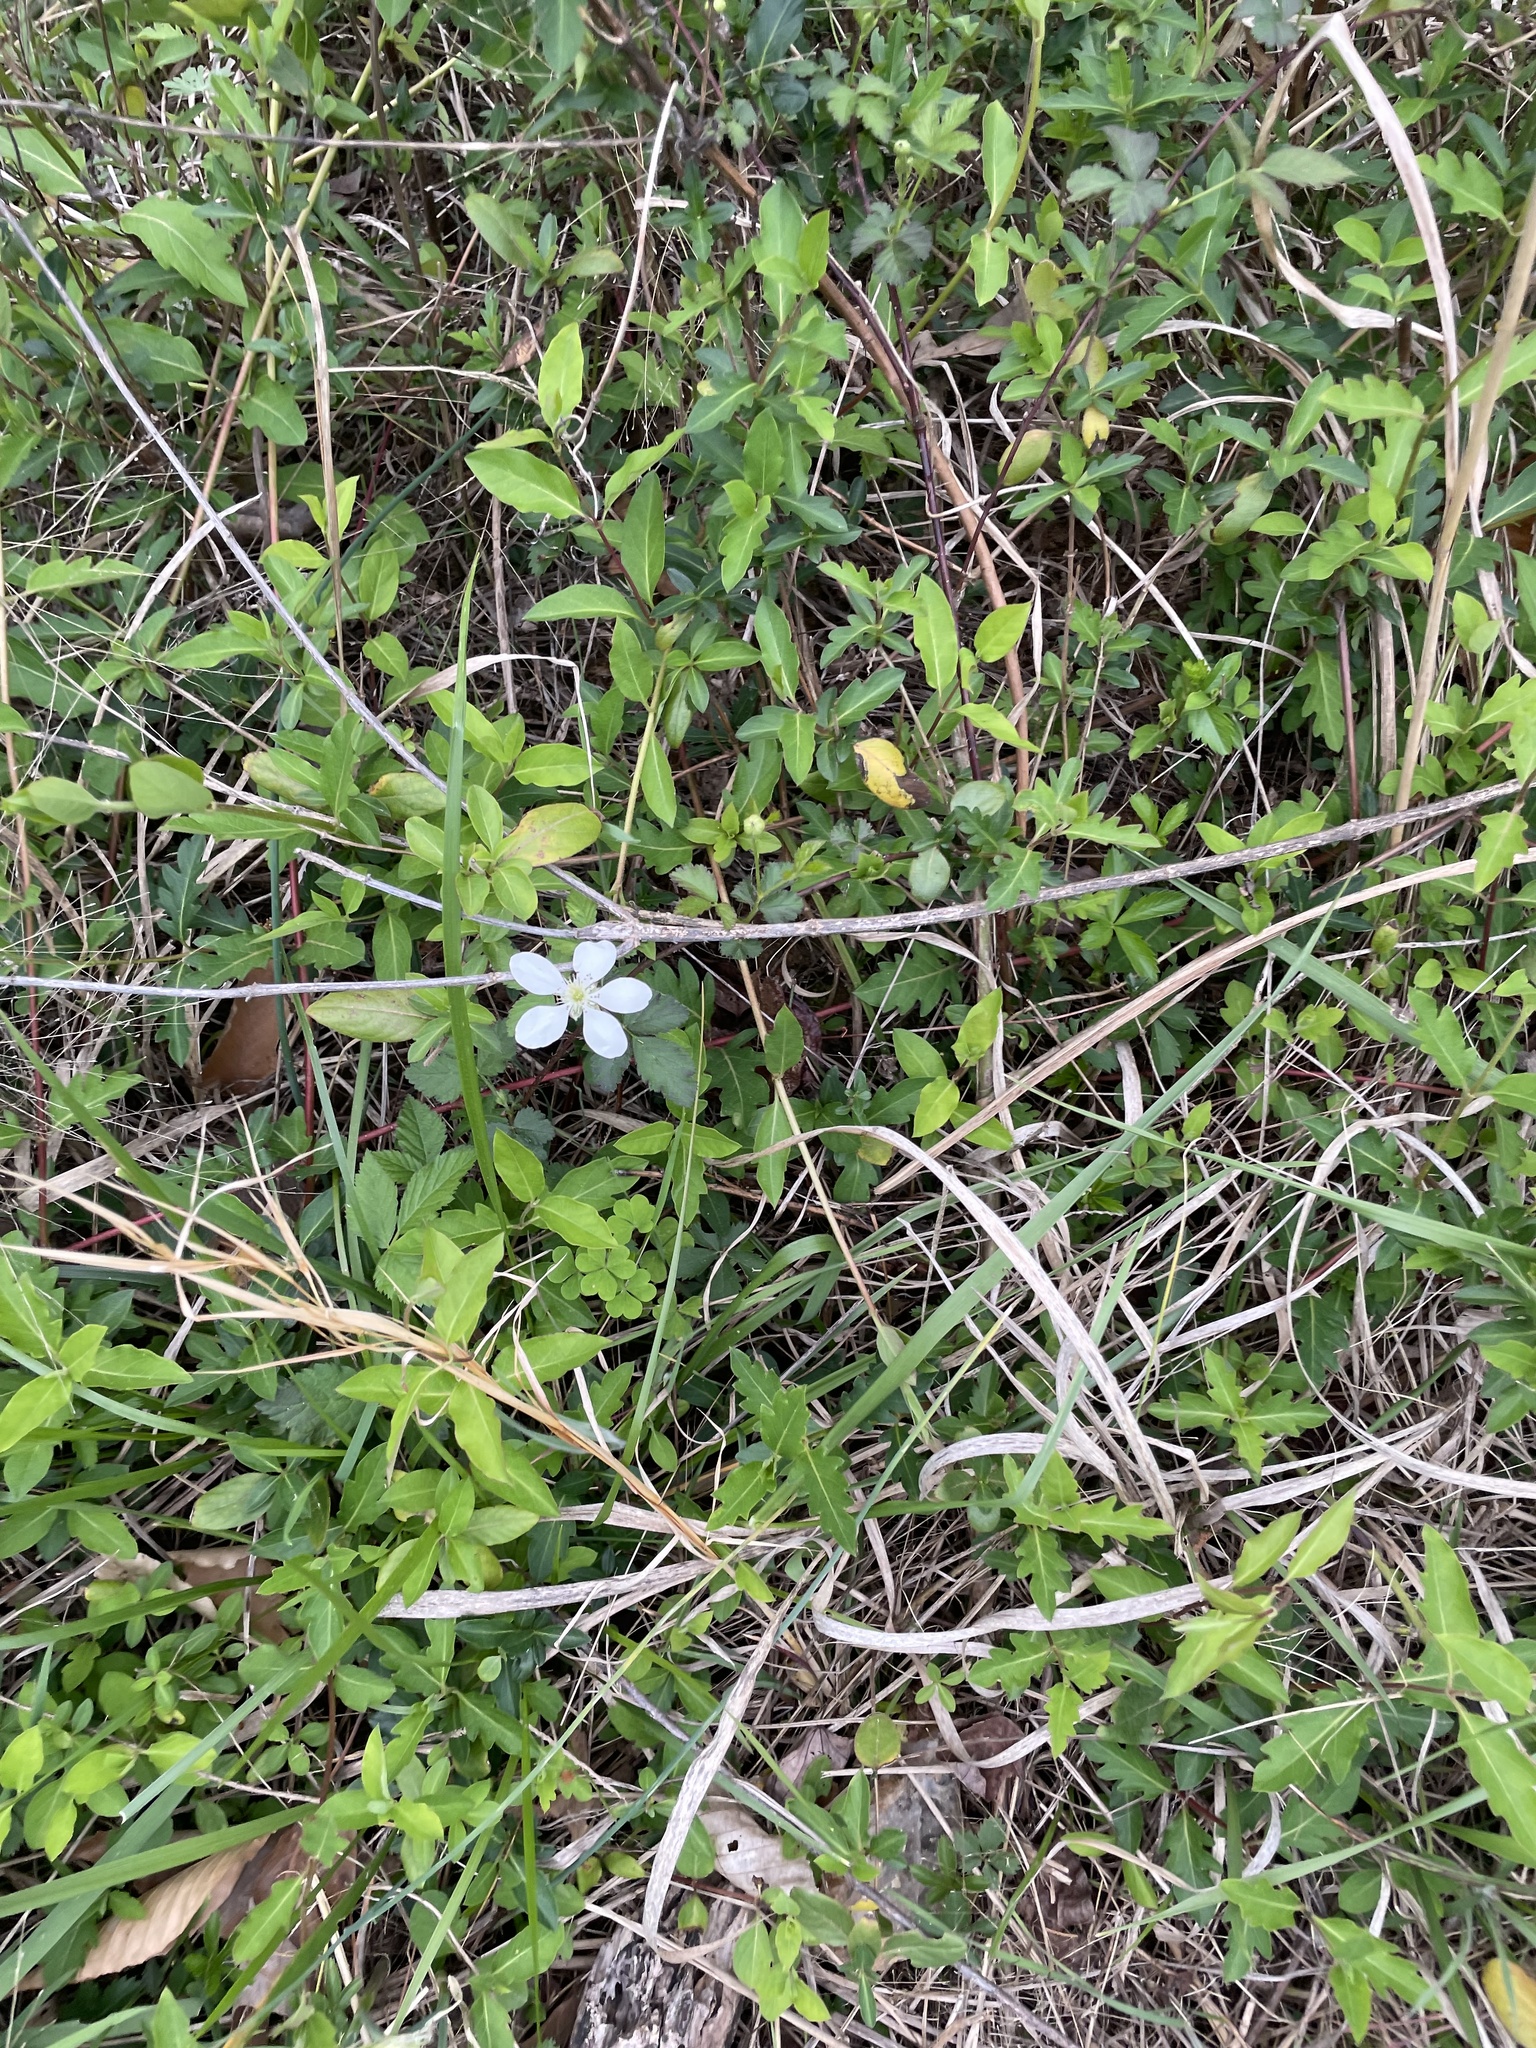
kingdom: Plantae
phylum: Tracheophyta
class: Magnoliopsida
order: Rosales
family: Rosaceae
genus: Rubus
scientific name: Rubus trivialis
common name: Southern dewberry
